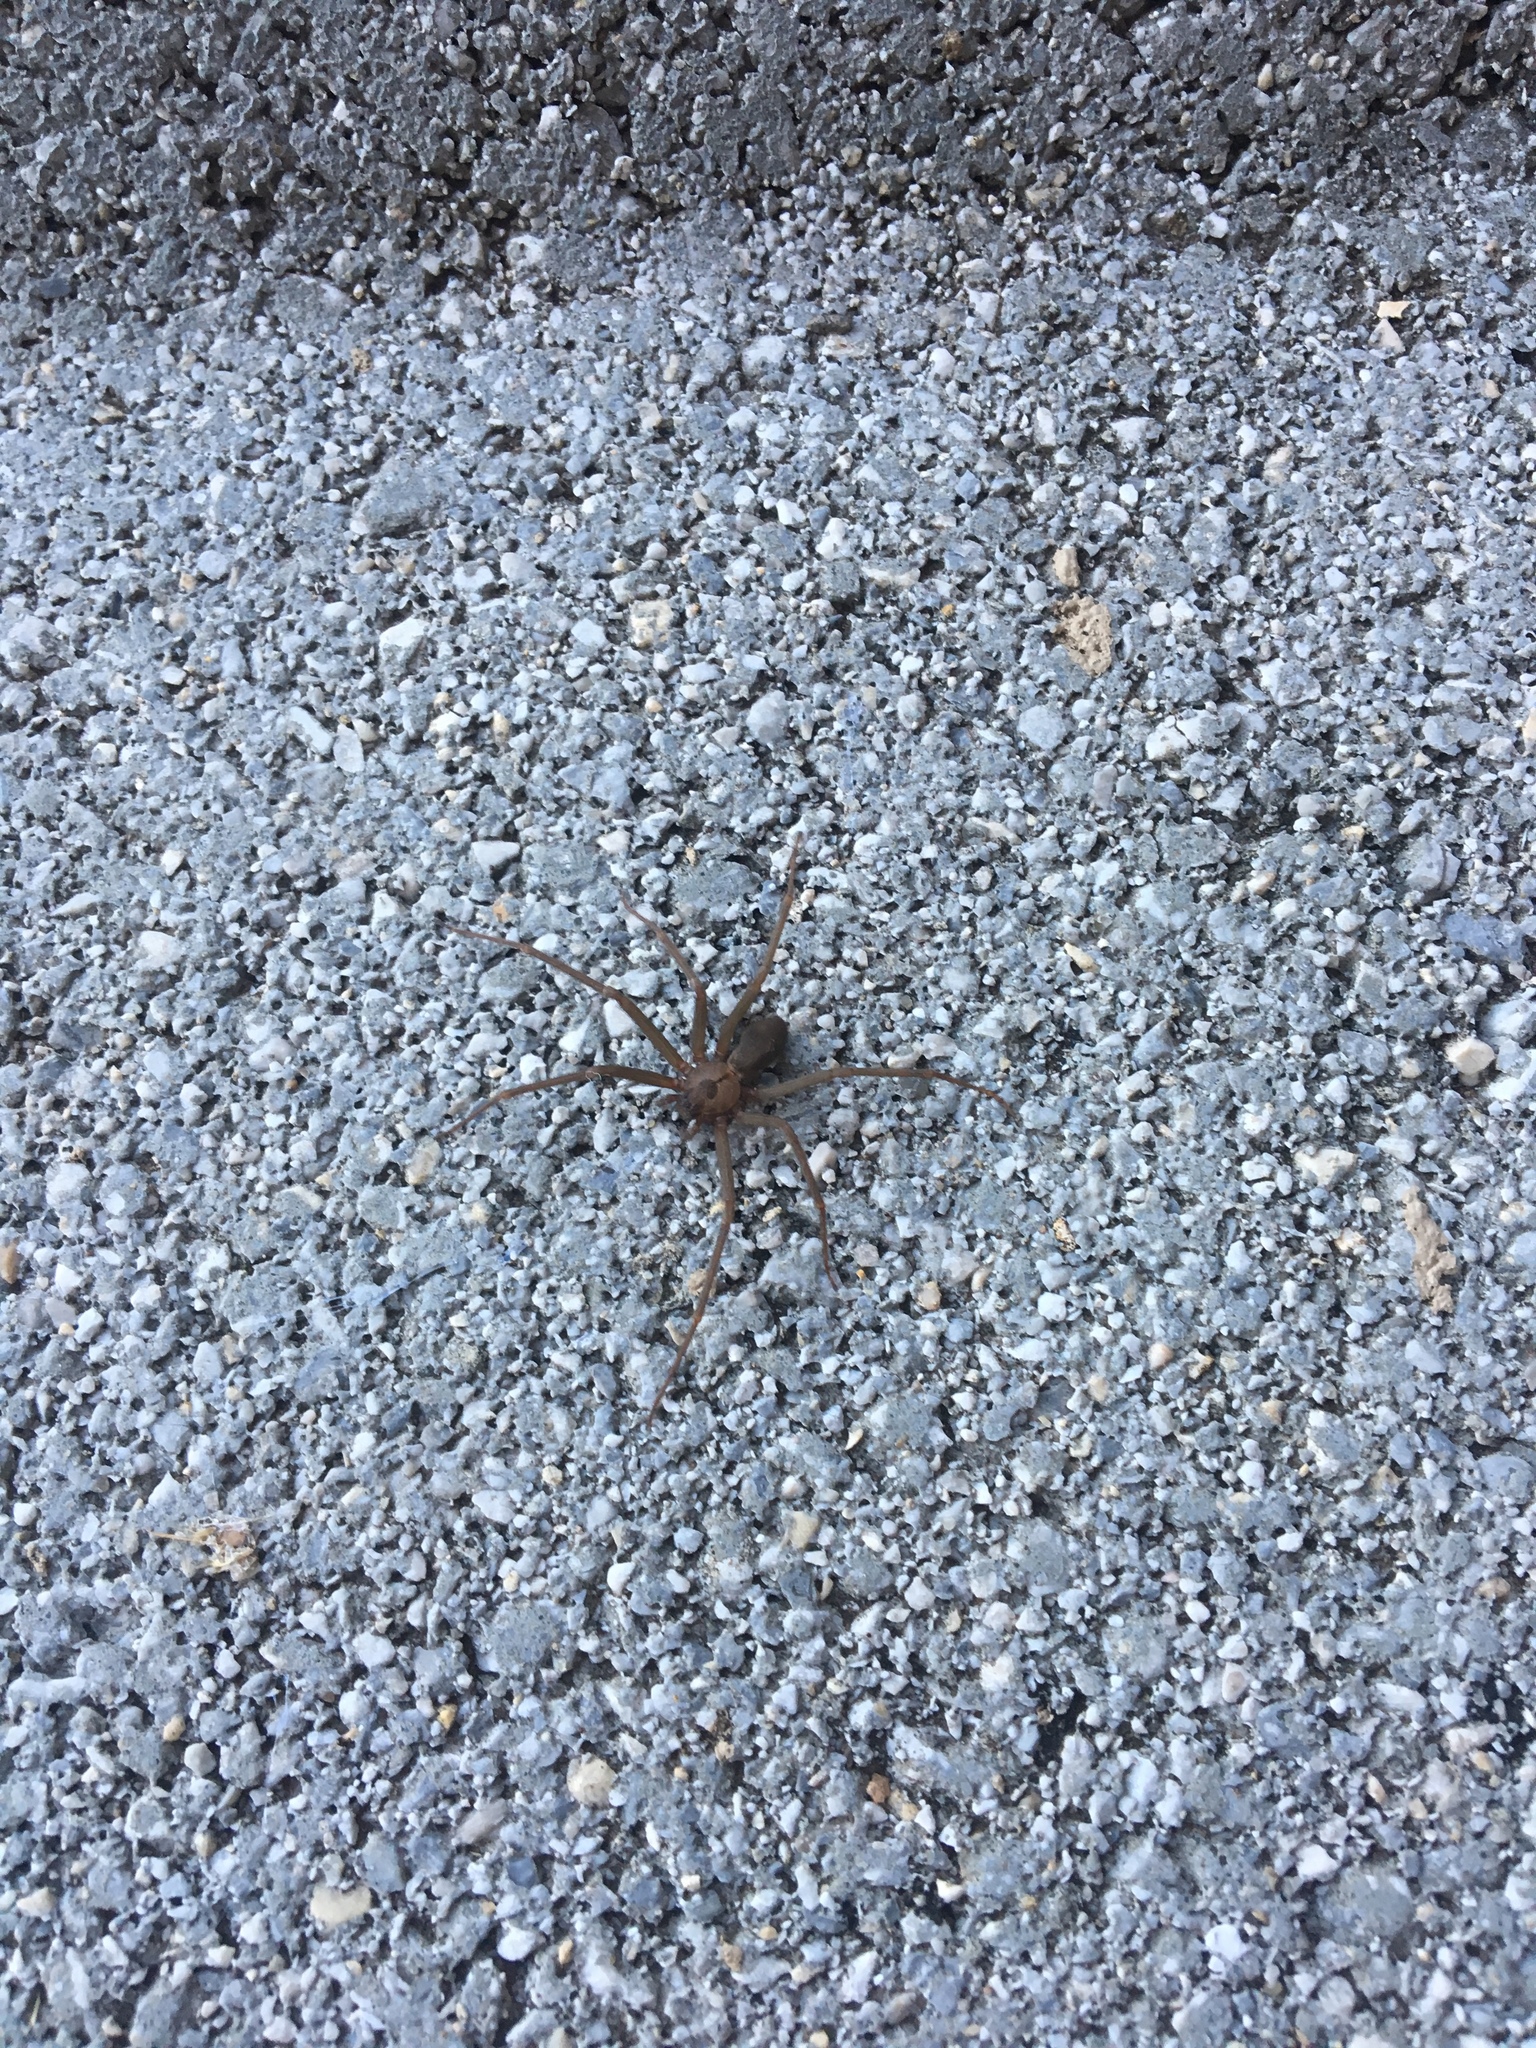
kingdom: Animalia
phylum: Arthropoda
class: Arachnida
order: Araneae
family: Sicariidae
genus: Loxosceles
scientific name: Loxosceles reclusa
